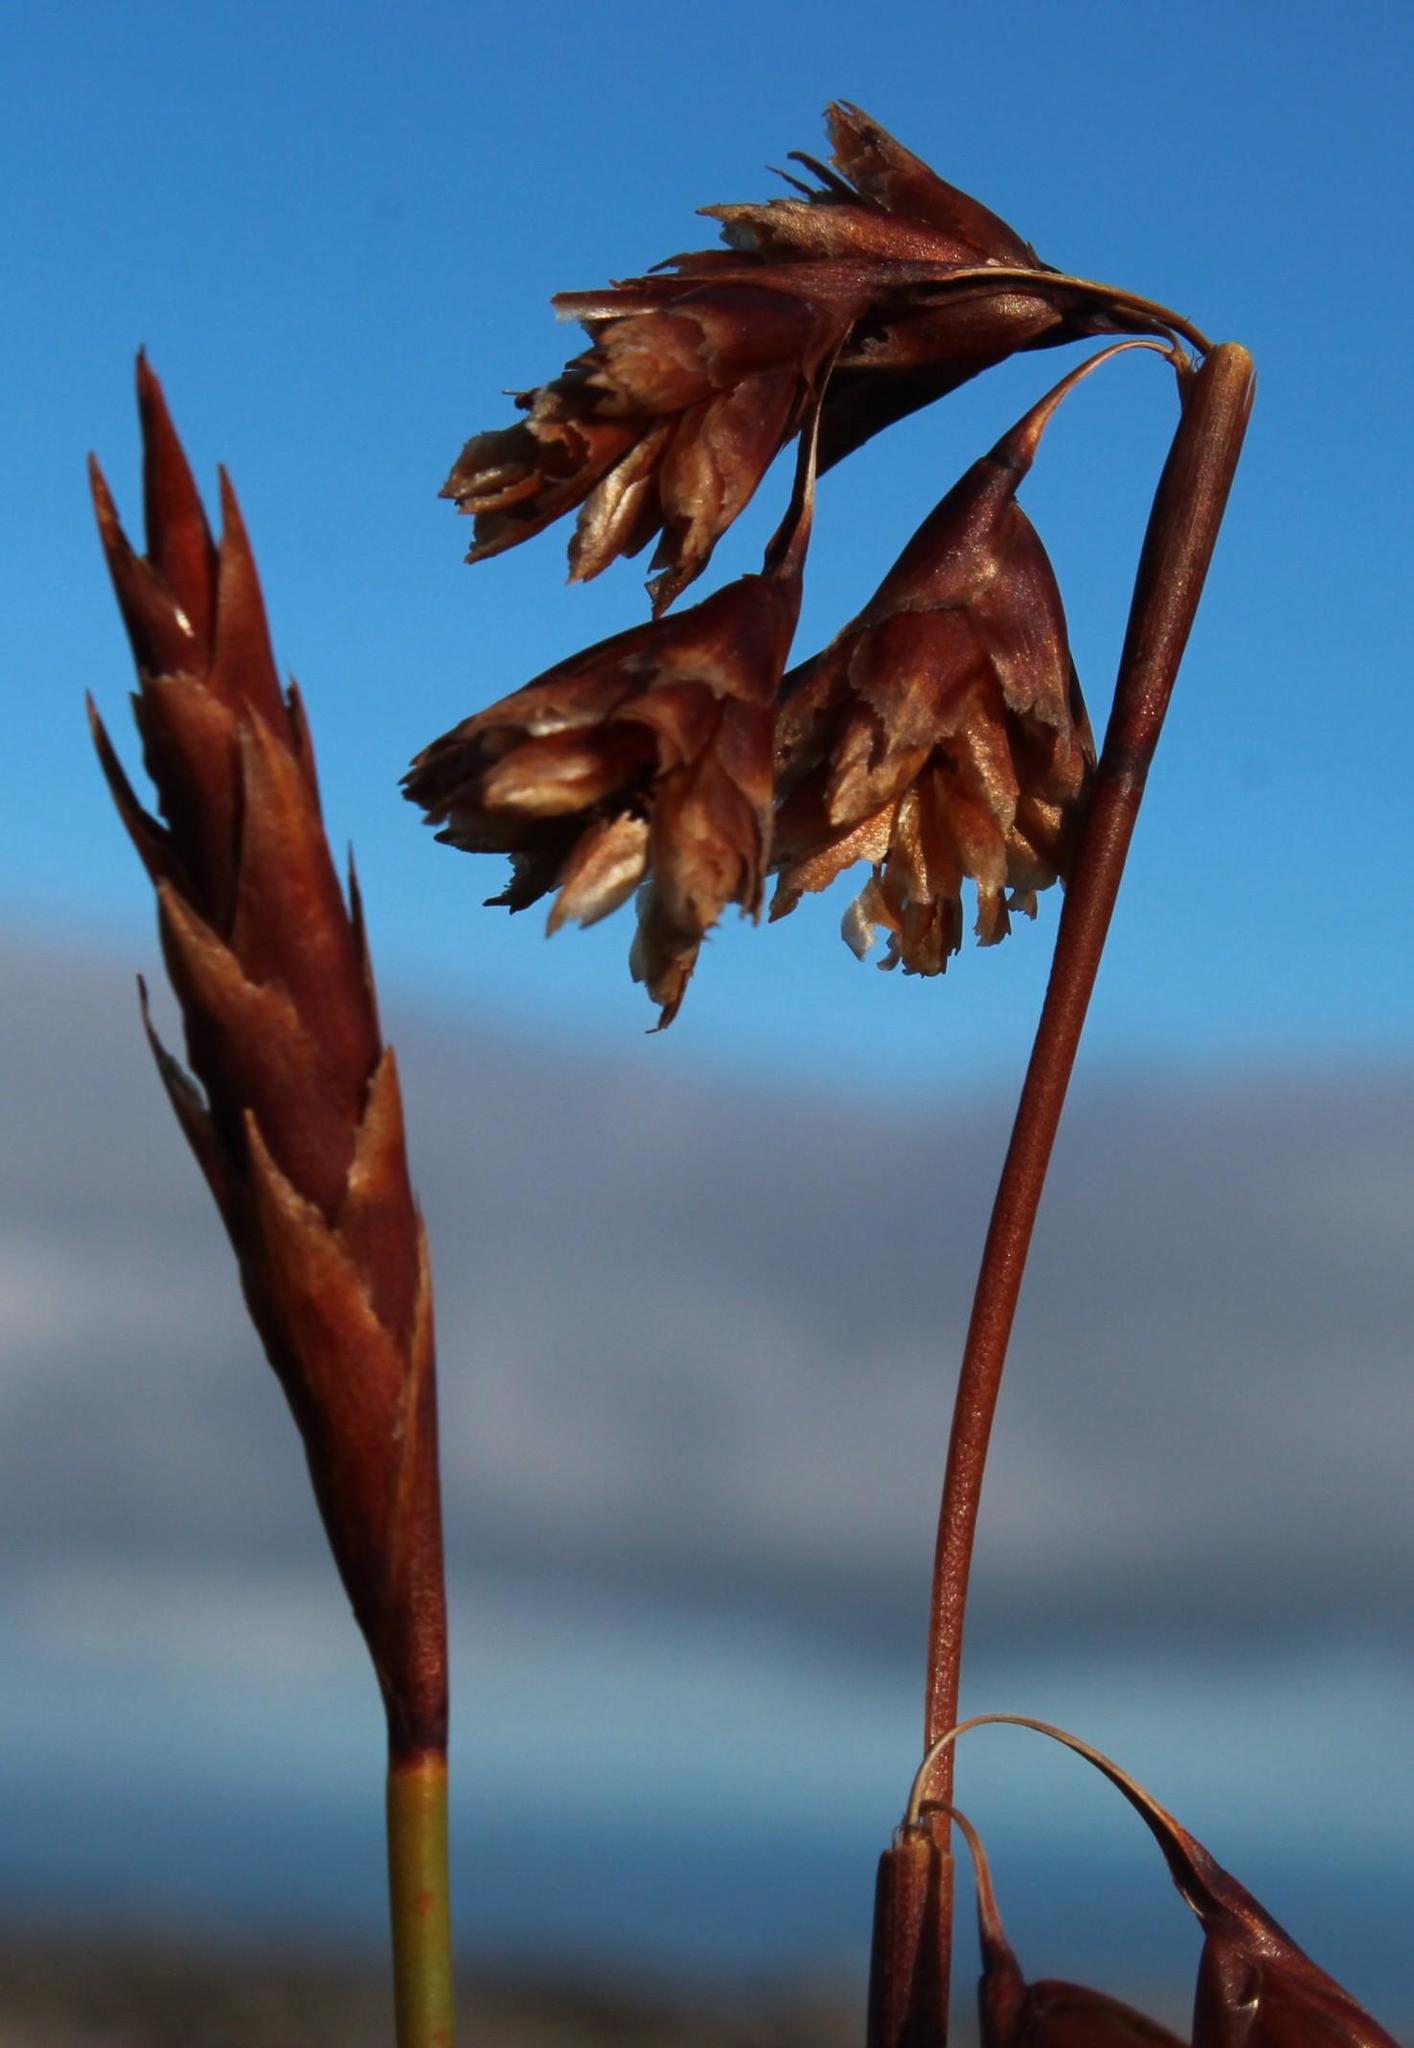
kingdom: Plantae
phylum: Tracheophyta
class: Liliopsida
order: Poales
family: Restionaceae
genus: Staberoha
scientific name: Staberoha cernua
